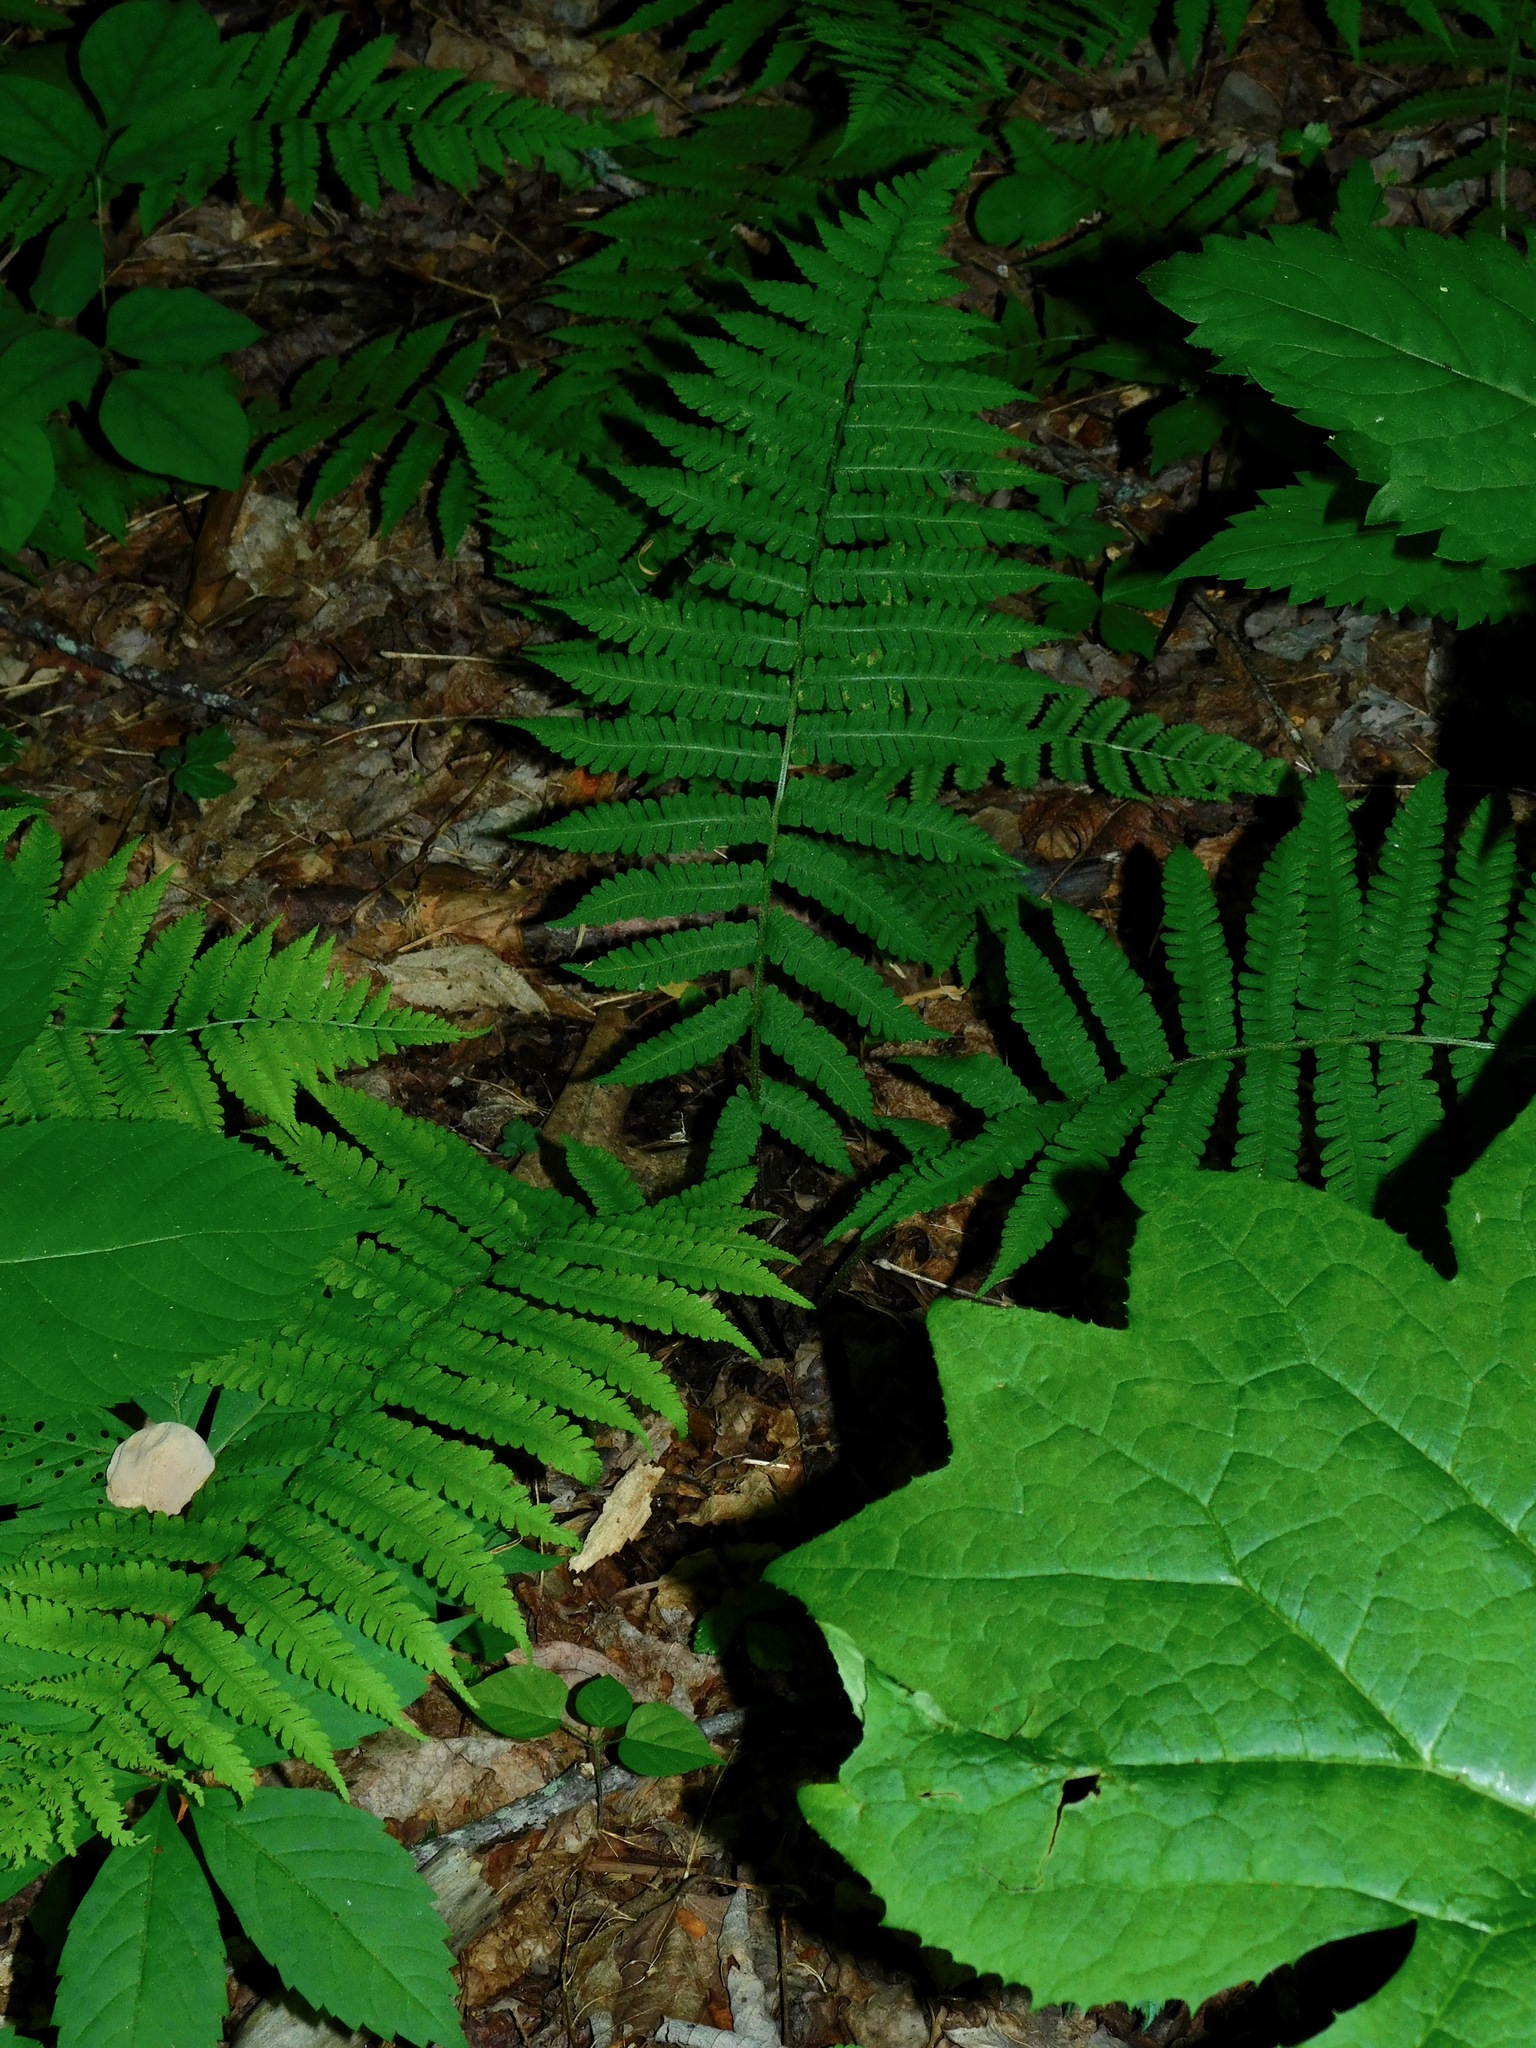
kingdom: Plantae
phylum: Tracheophyta
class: Polypodiopsida
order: Polypodiales
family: Athyriaceae
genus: Deparia
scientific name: Deparia acrostichoides
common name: Silver false spleenwort
